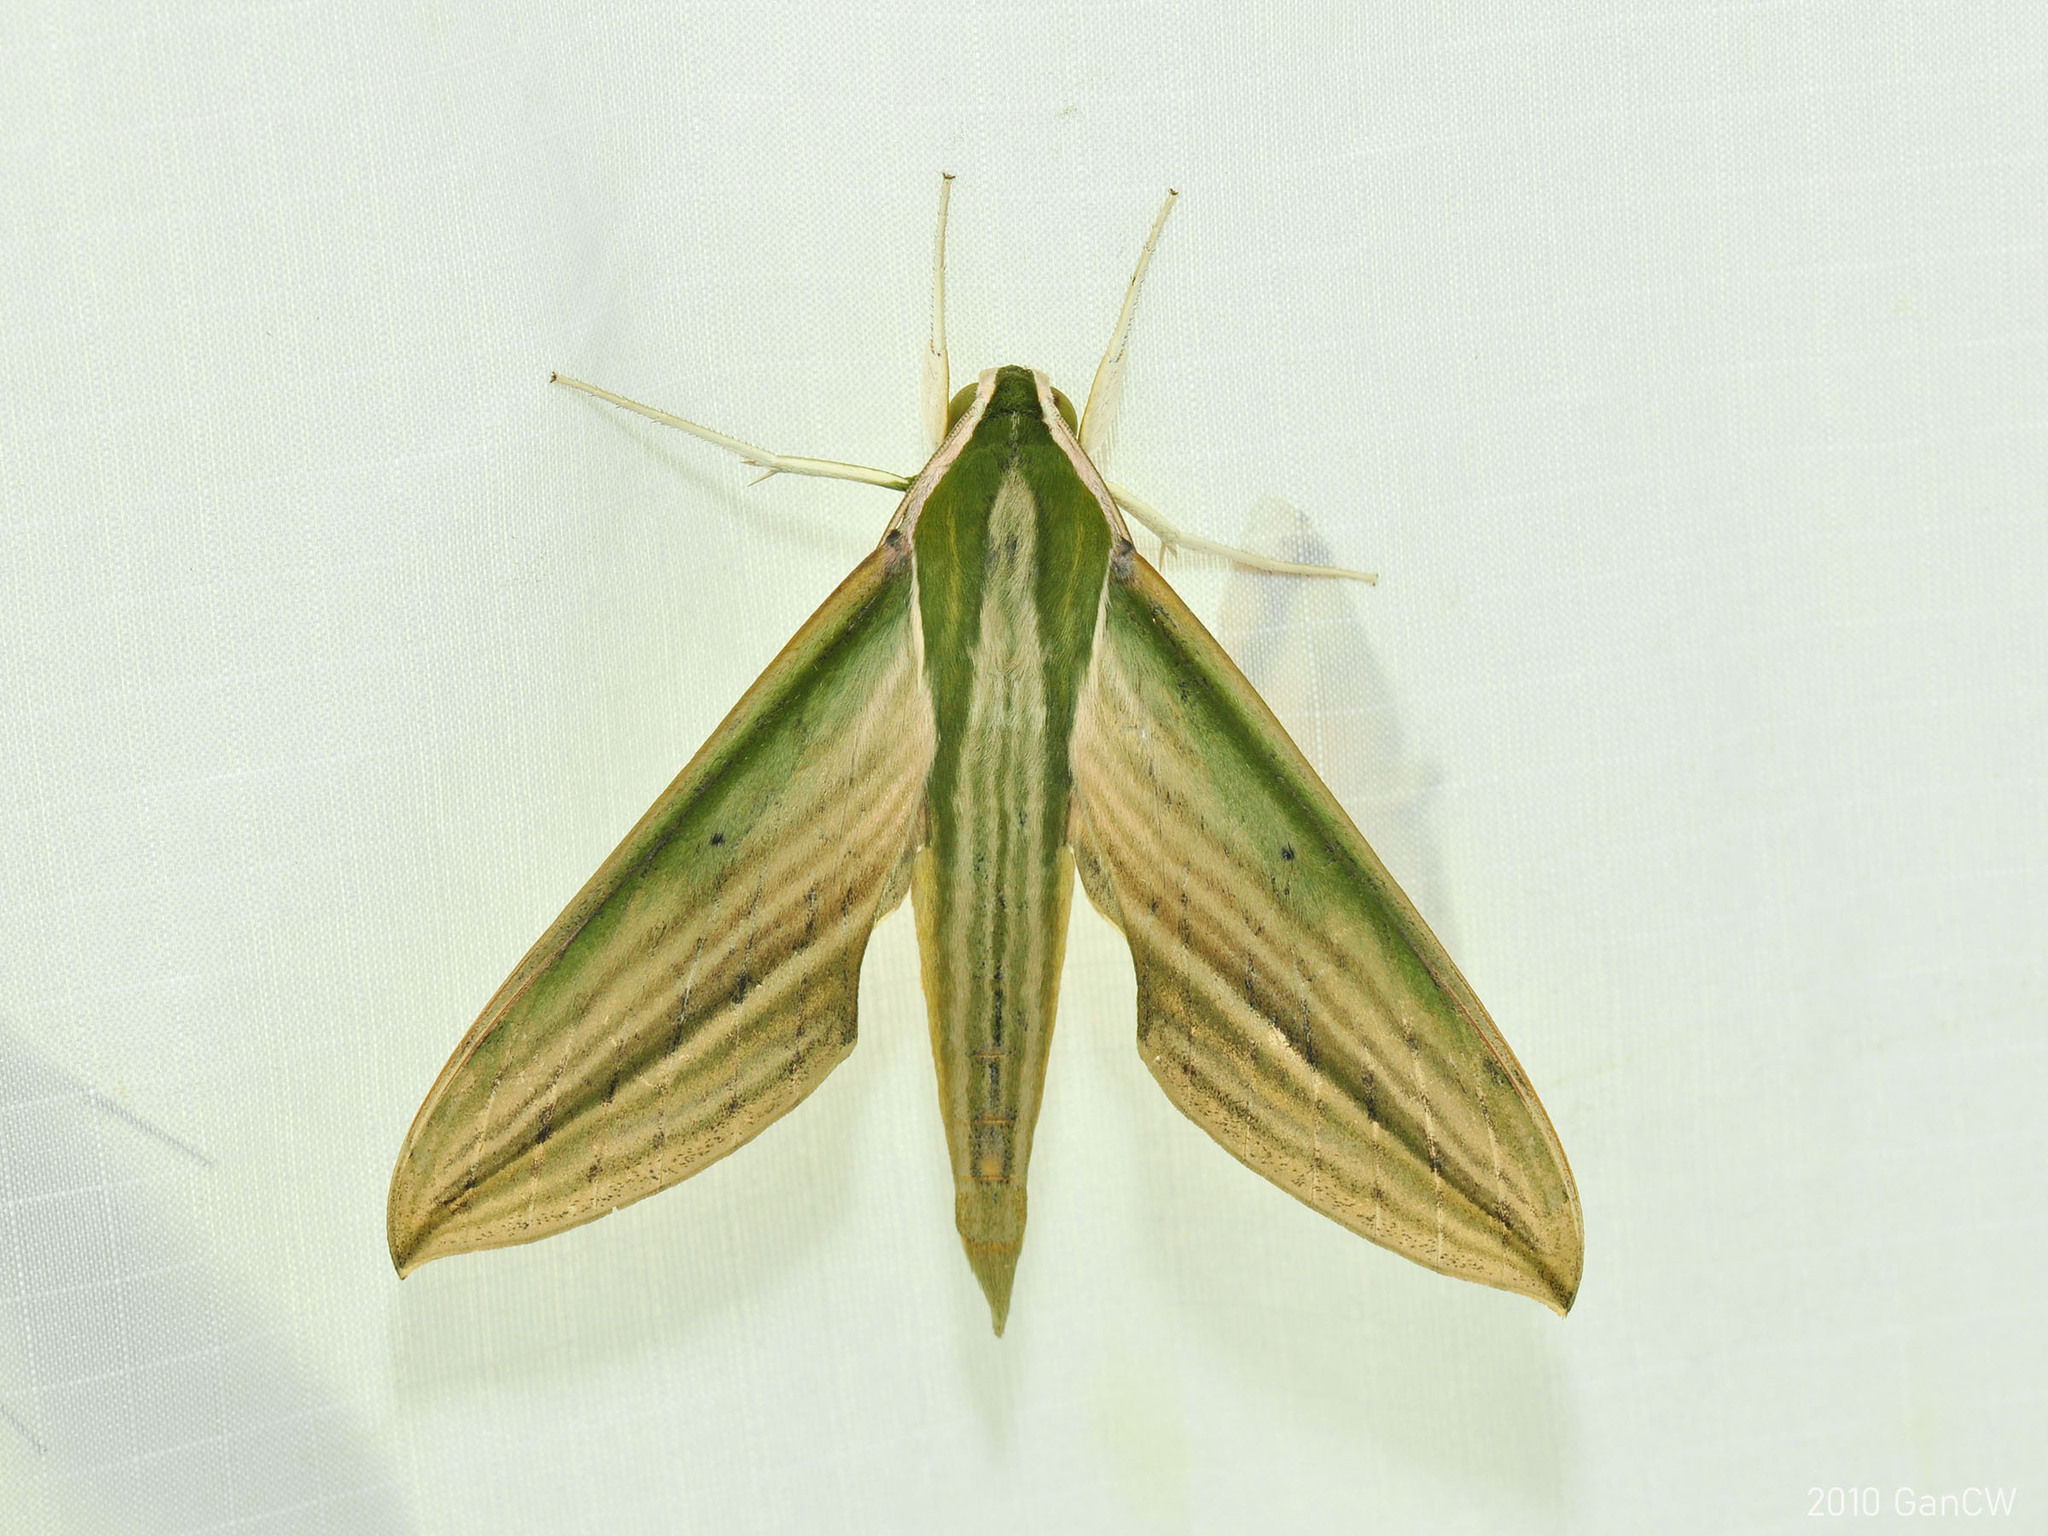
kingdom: Animalia
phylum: Arthropoda
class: Insecta
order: Lepidoptera
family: Sphingidae
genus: Cechetra
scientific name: Cechetra lineosa
